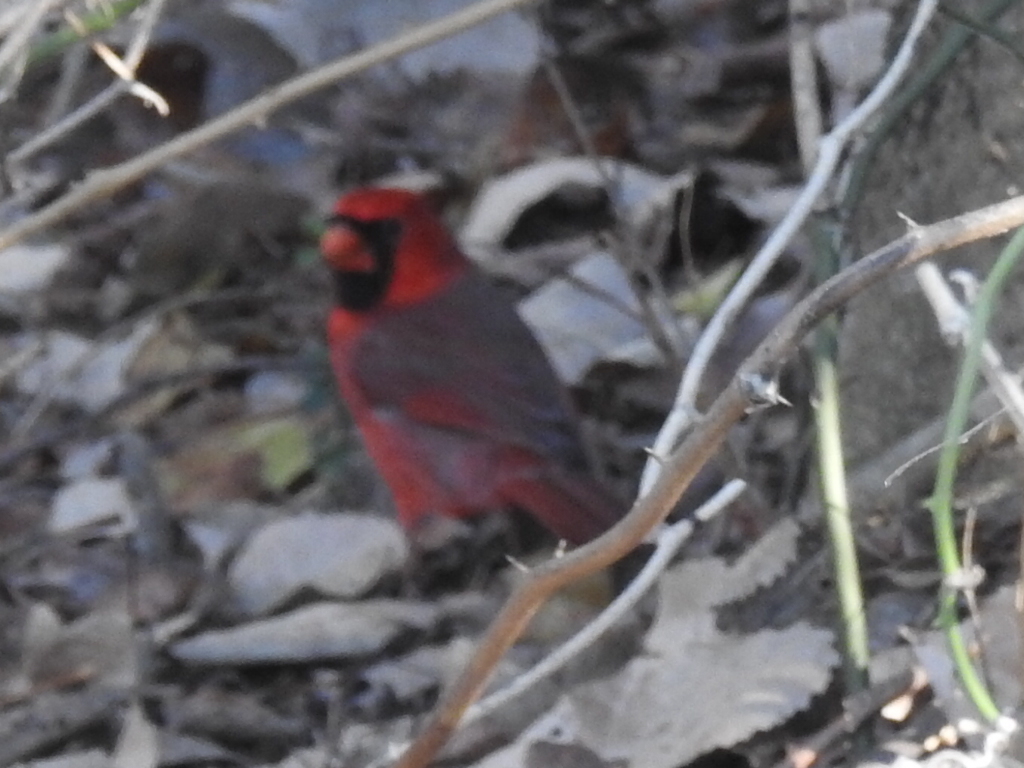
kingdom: Animalia
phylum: Chordata
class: Aves
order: Passeriformes
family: Cardinalidae
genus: Cardinalis
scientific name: Cardinalis cardinalis
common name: Northern cardinal
